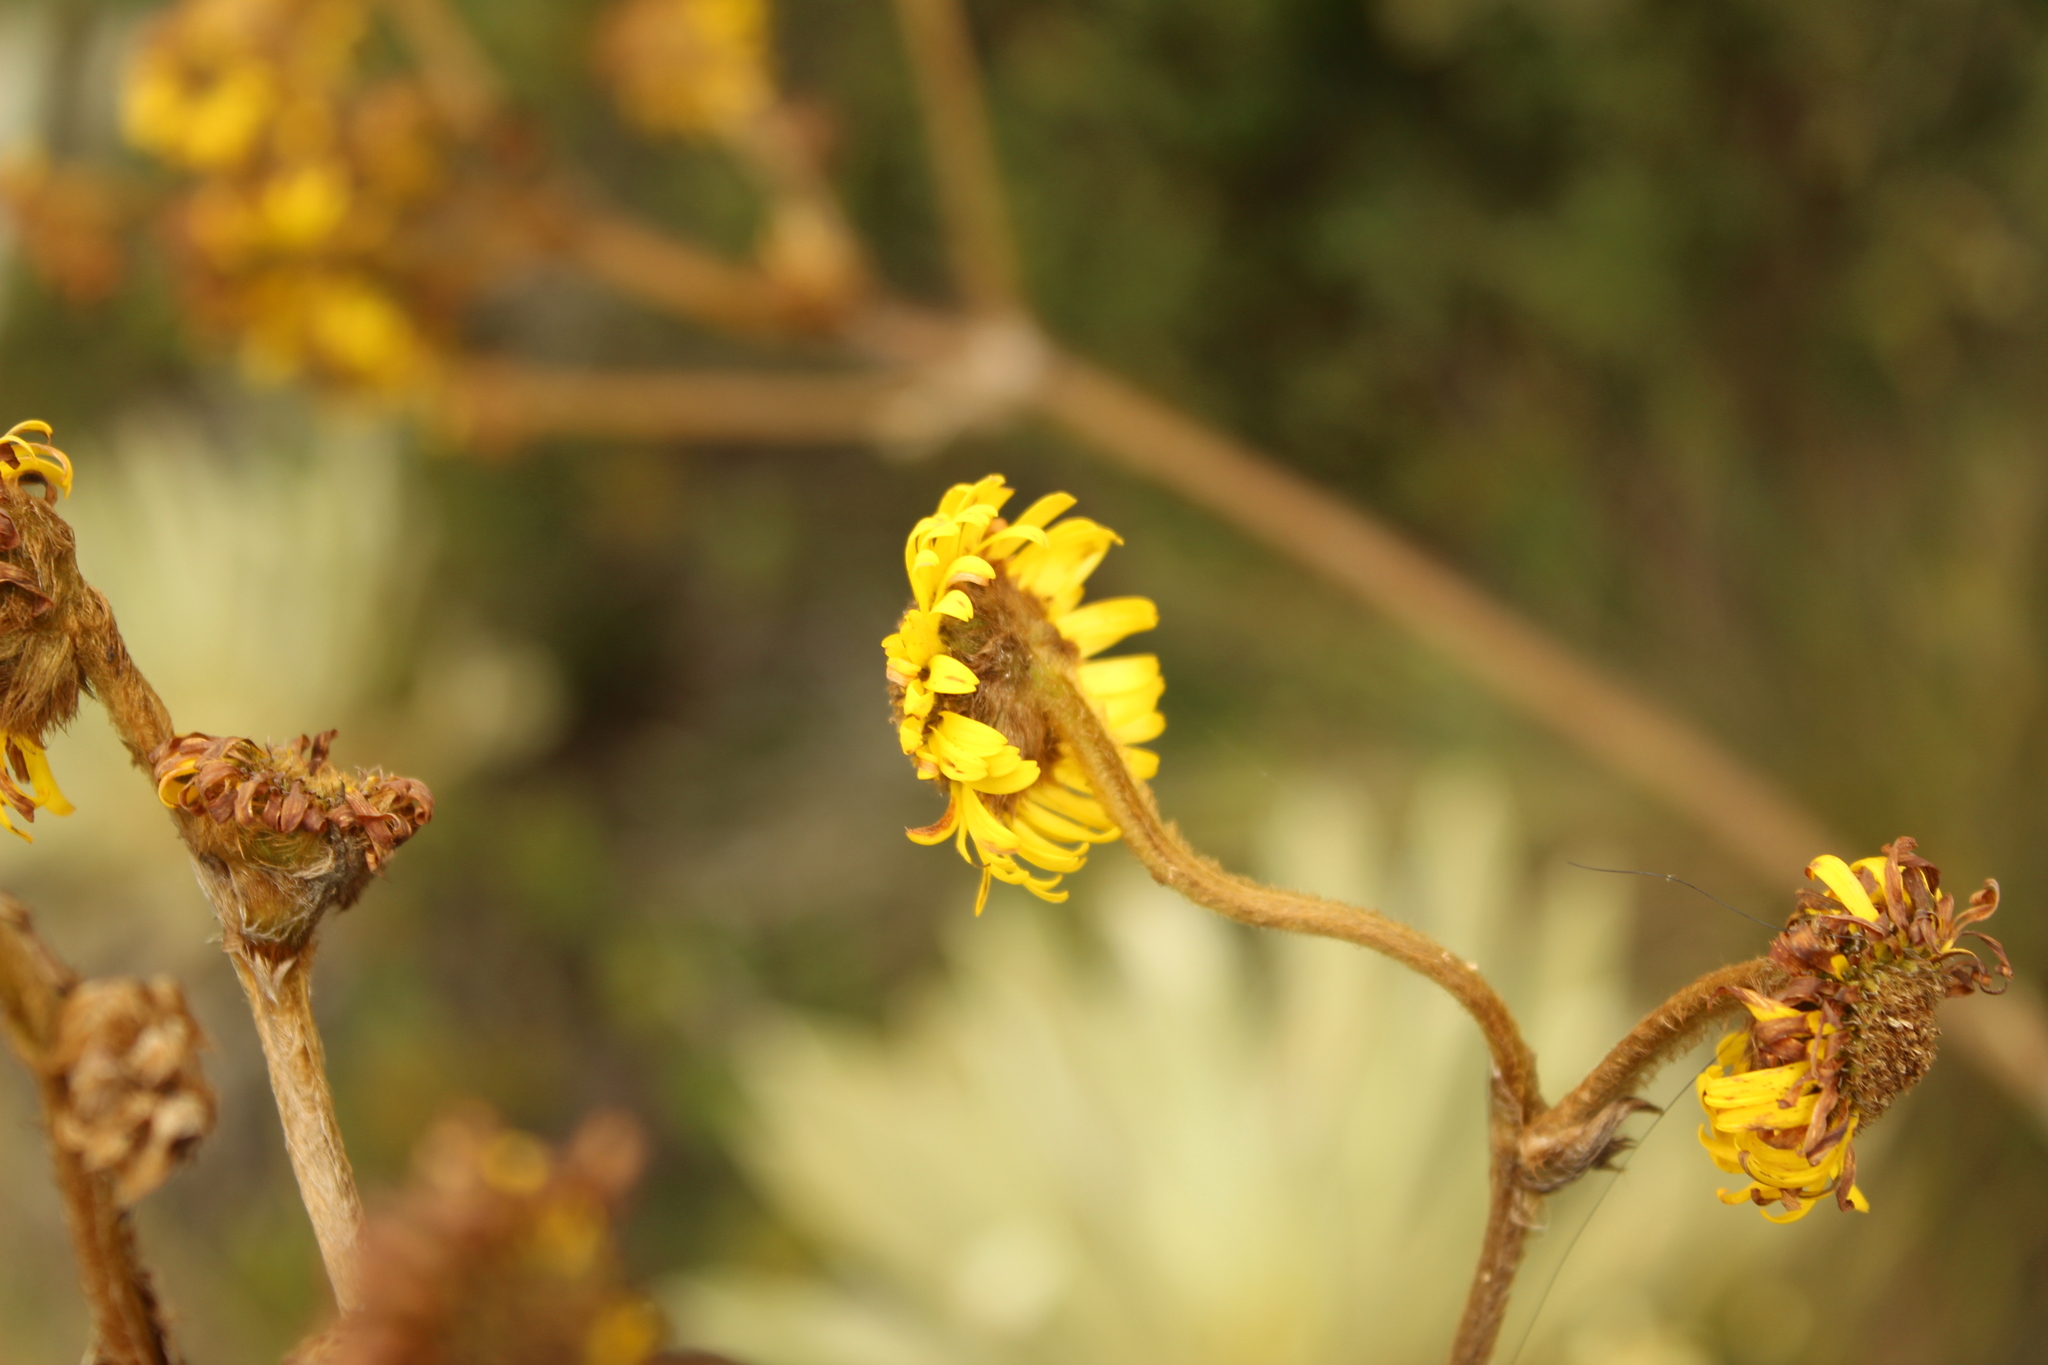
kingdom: Plantae
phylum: Tracheophyta
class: Magnoliopsida
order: Asterales
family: Asteraceae
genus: Espeletia
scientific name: Espeletia boyacensis
